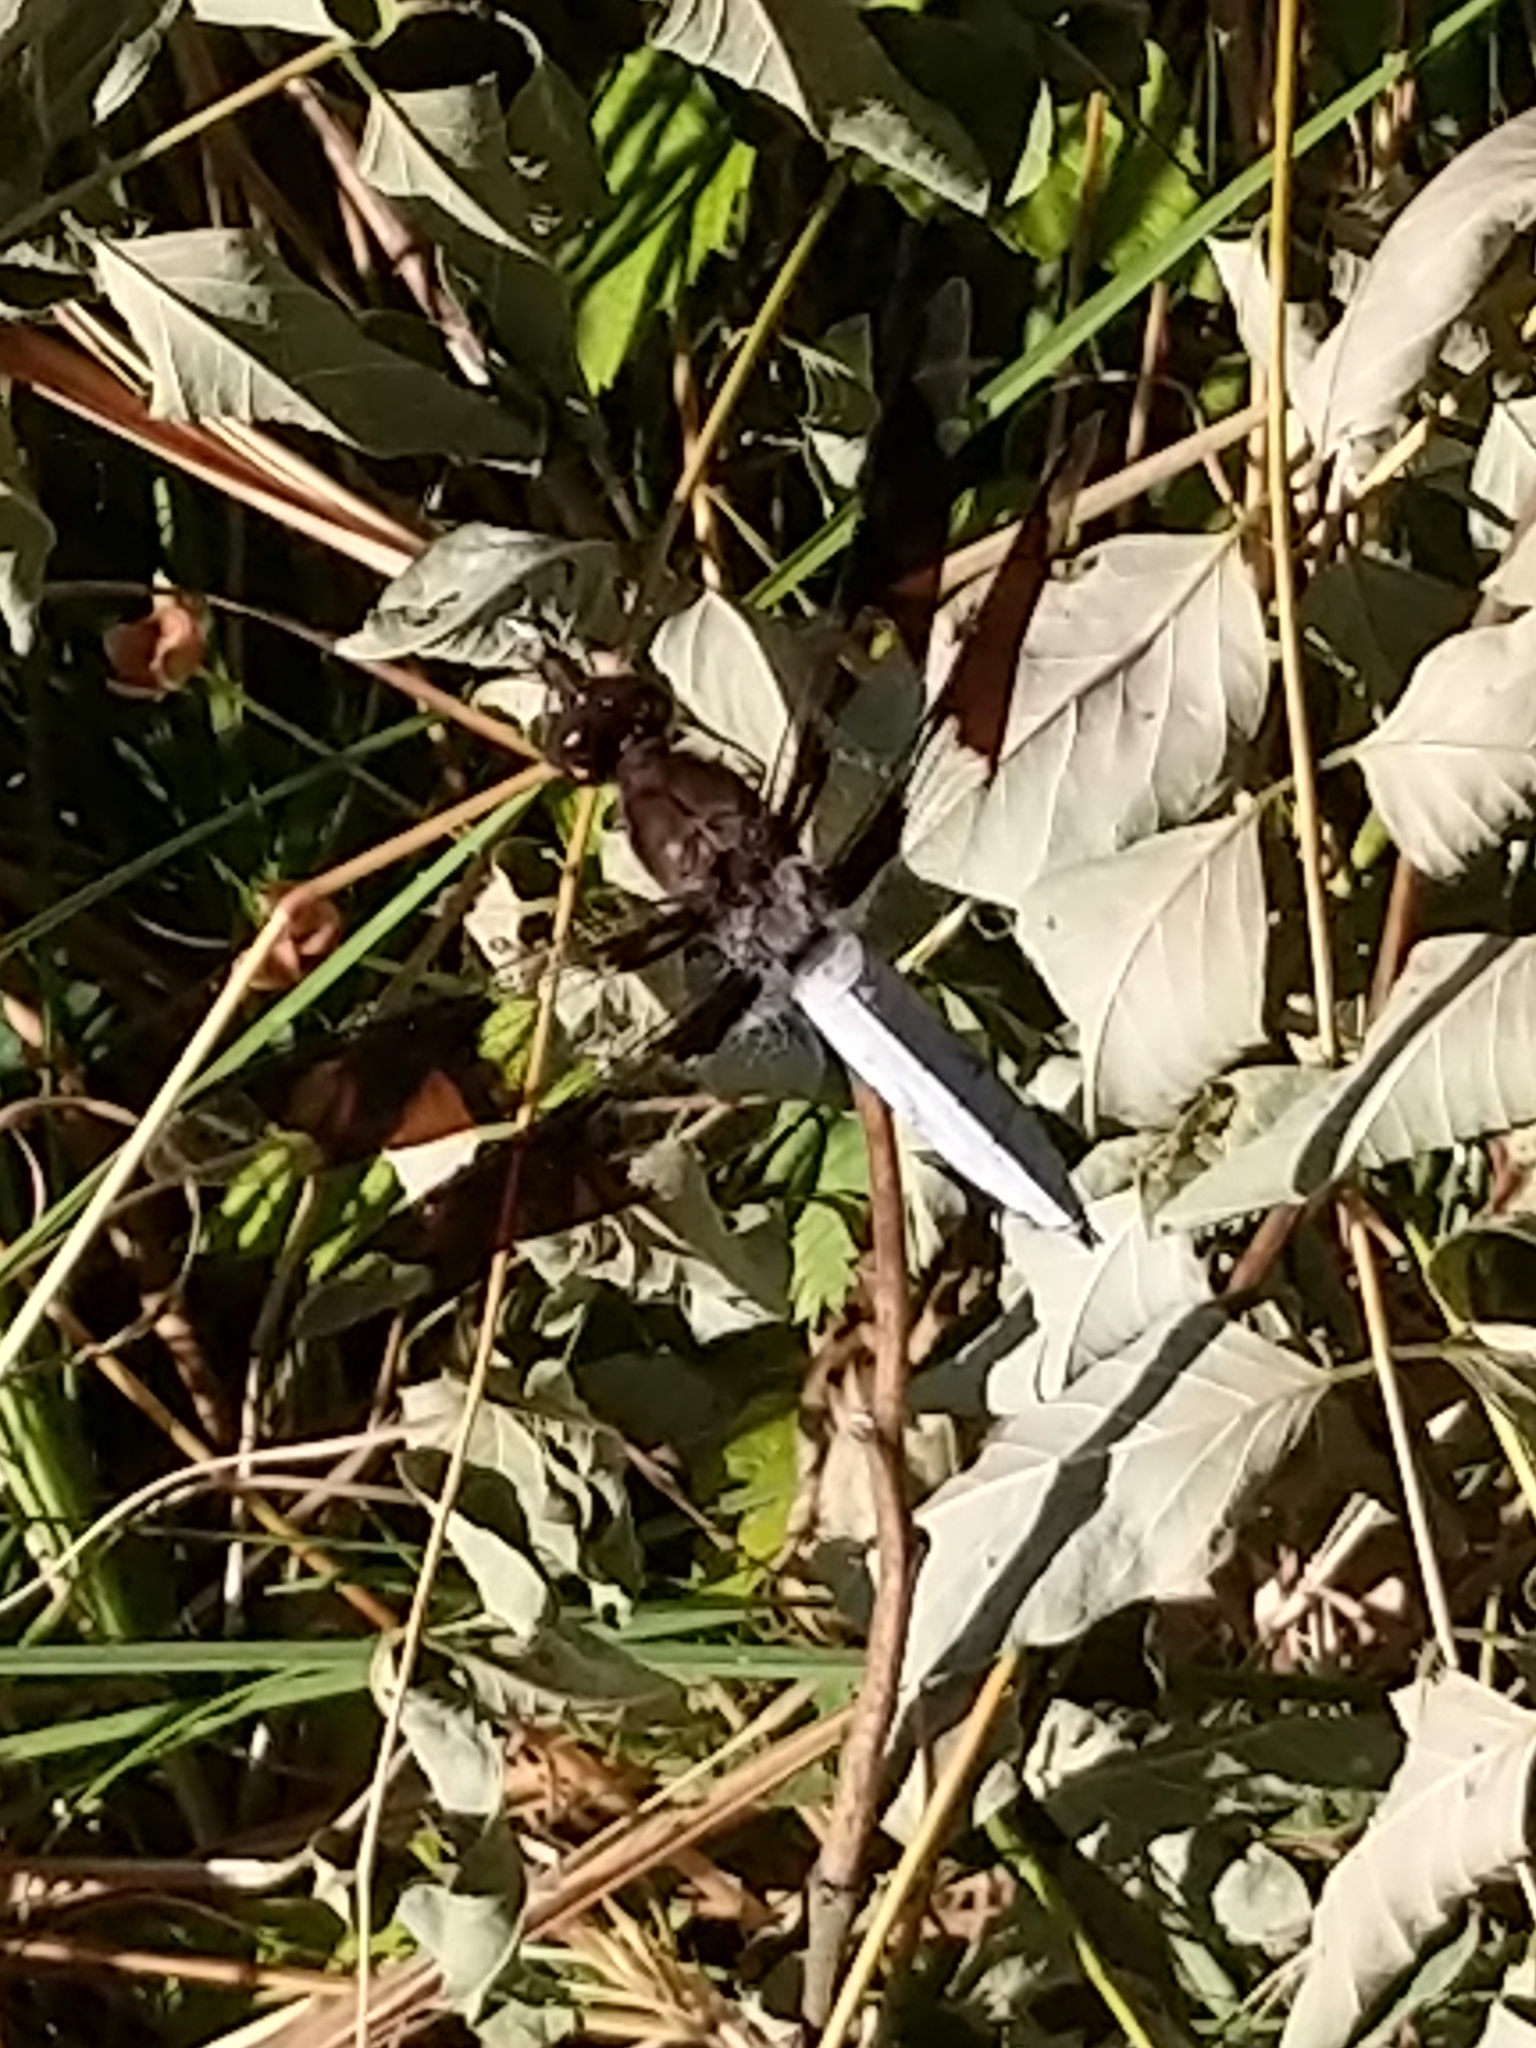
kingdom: Animalia
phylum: Arthropoda
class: Insecta
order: Odonata
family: Libellulidae
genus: Plathemis
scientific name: Plathemis lydia
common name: Common whitetail
